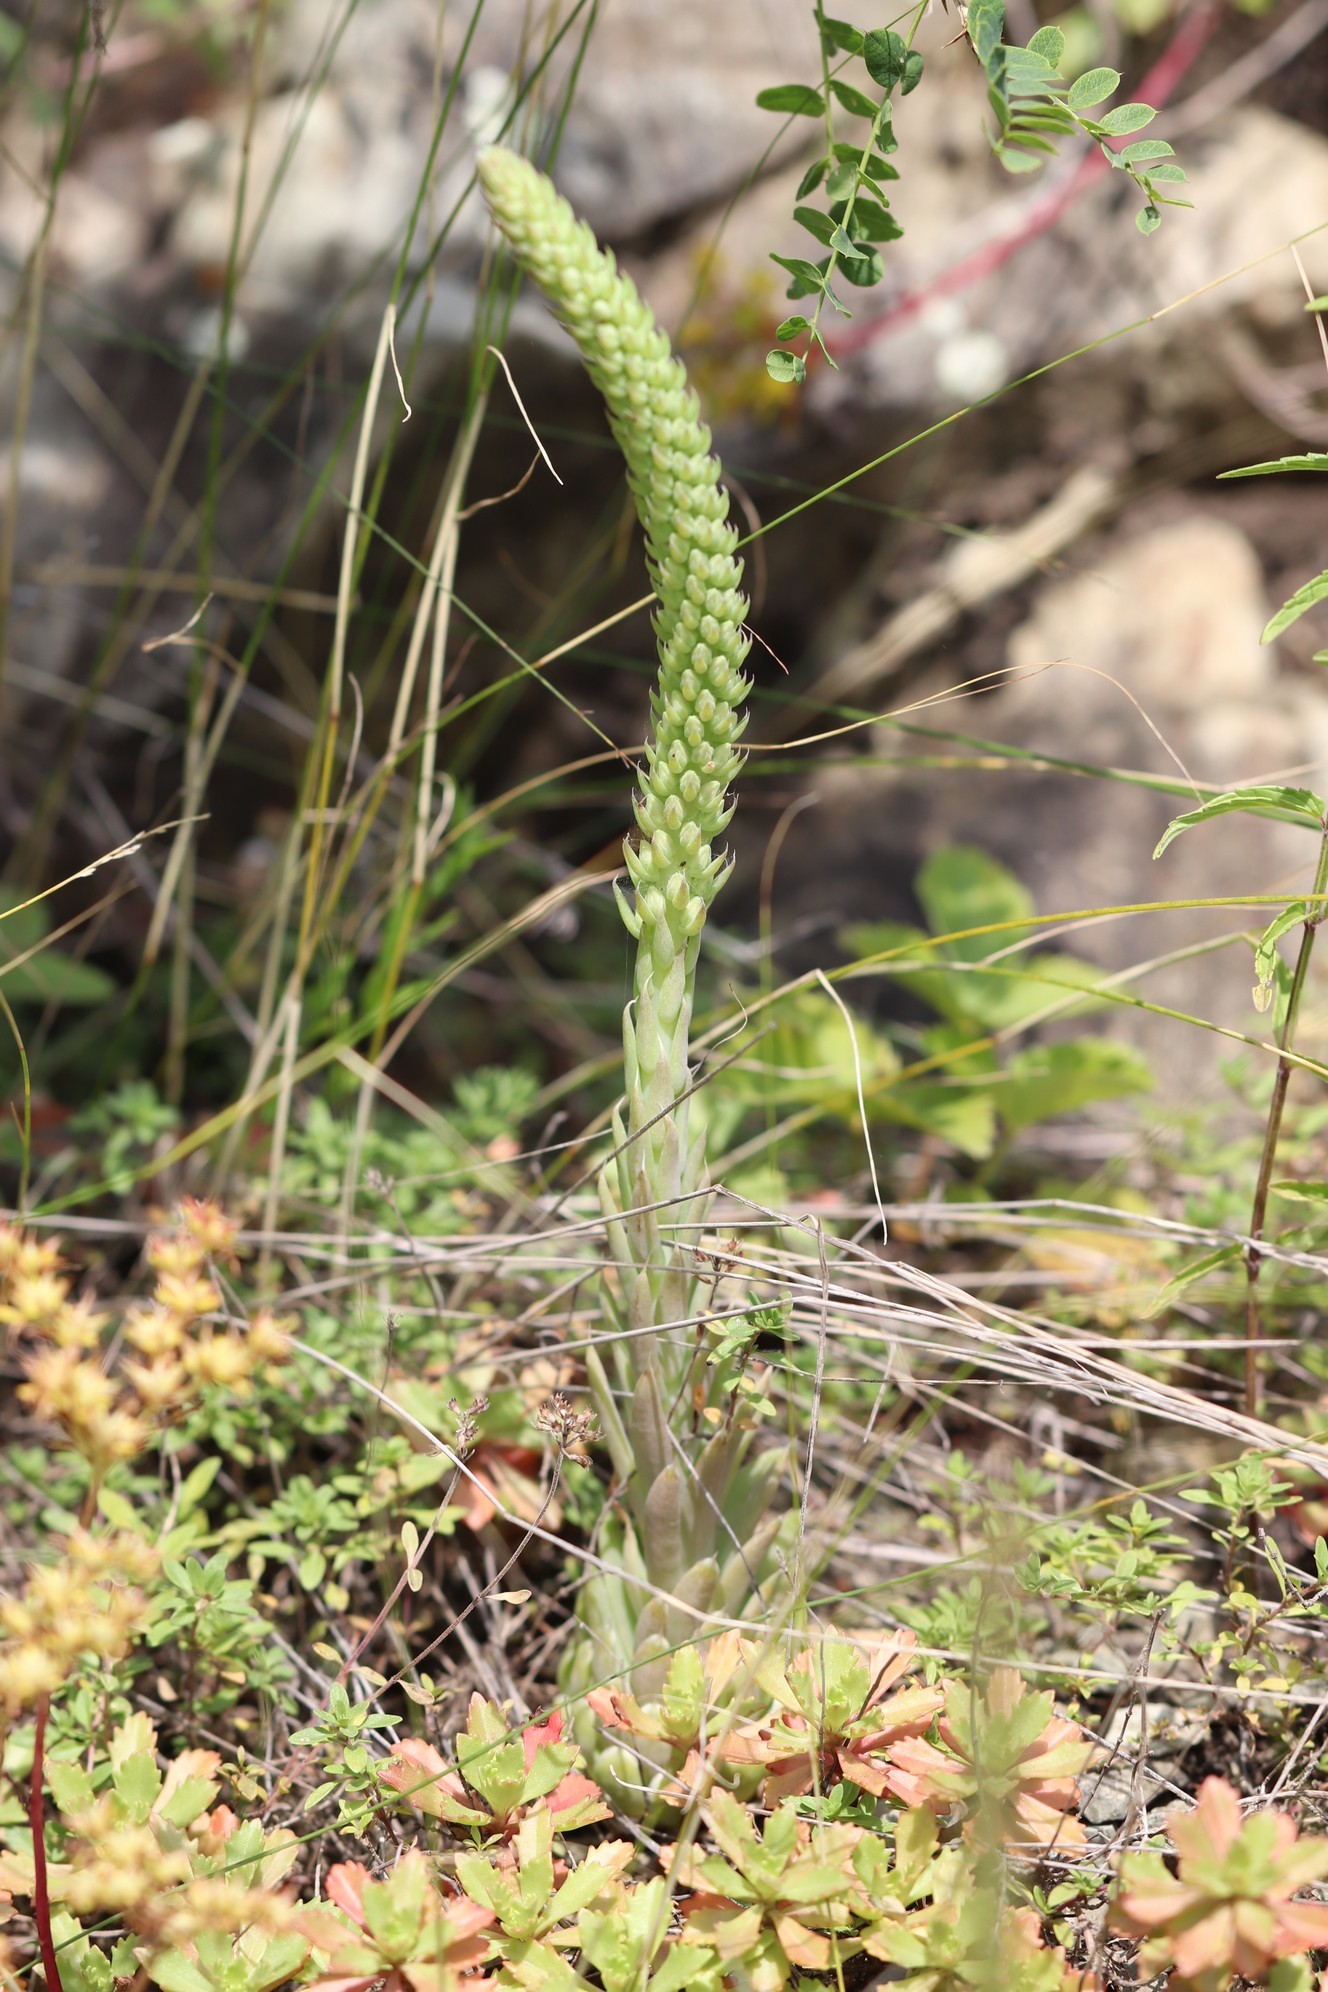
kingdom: Plantae
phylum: Tracheophyta
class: Magnoliopsida
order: Saxifragales
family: Crassulaceae
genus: Orostachys
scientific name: Orostachys spinosa
